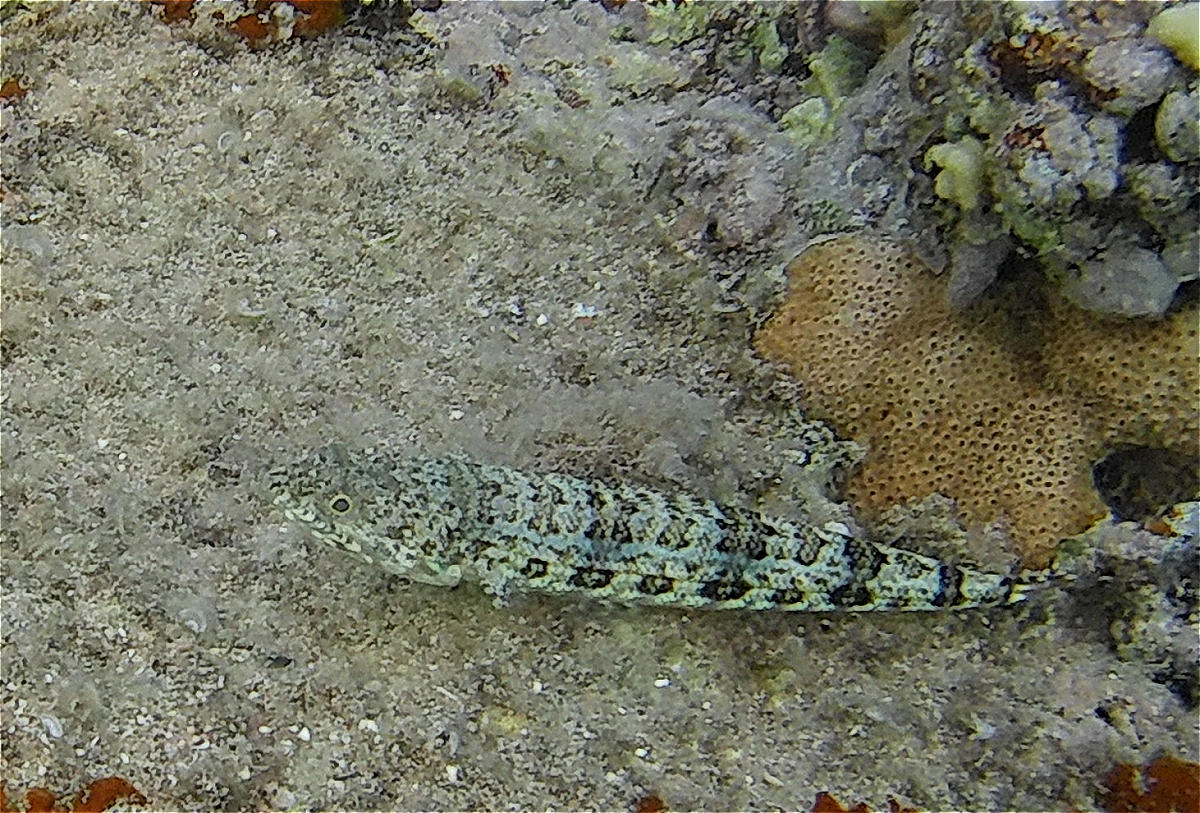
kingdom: Animalia
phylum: Chordata
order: Aulopiformes
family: Synodontidae
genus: Synodus
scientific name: Synodus dermatogenys
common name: Banded lizardfish
